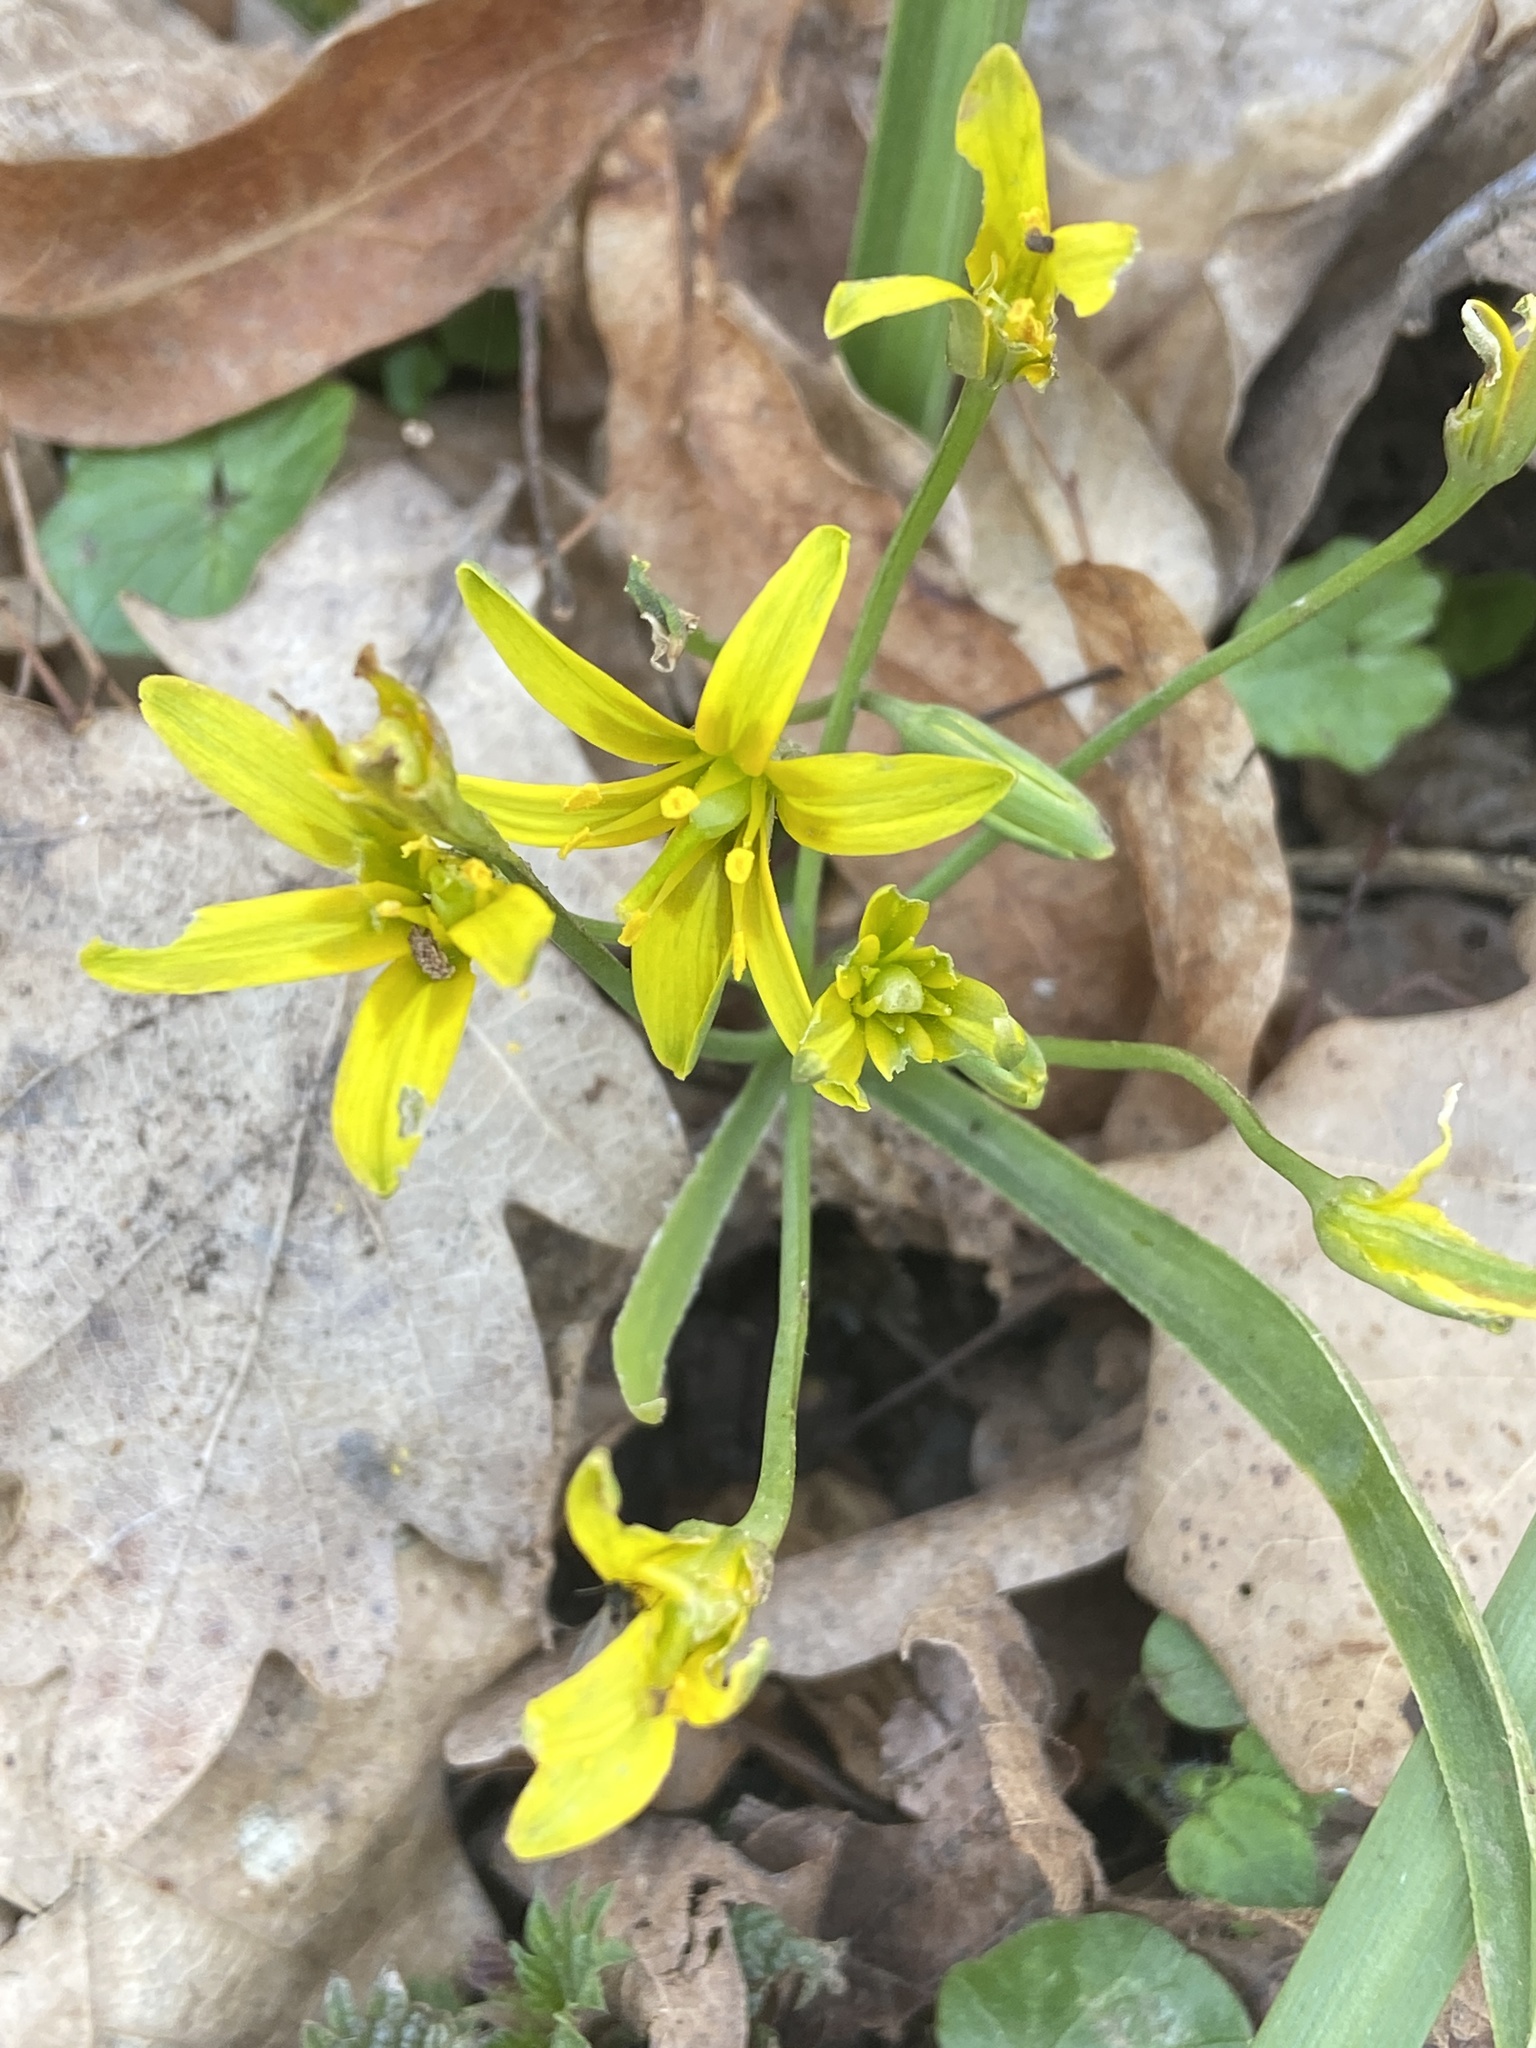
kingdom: Plantae
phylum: Tracheophyta
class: Liliopsida
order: Liliales
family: Liliaceae
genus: Gagea
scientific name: Gagea lutea
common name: Yellow star-of-bethlehem
